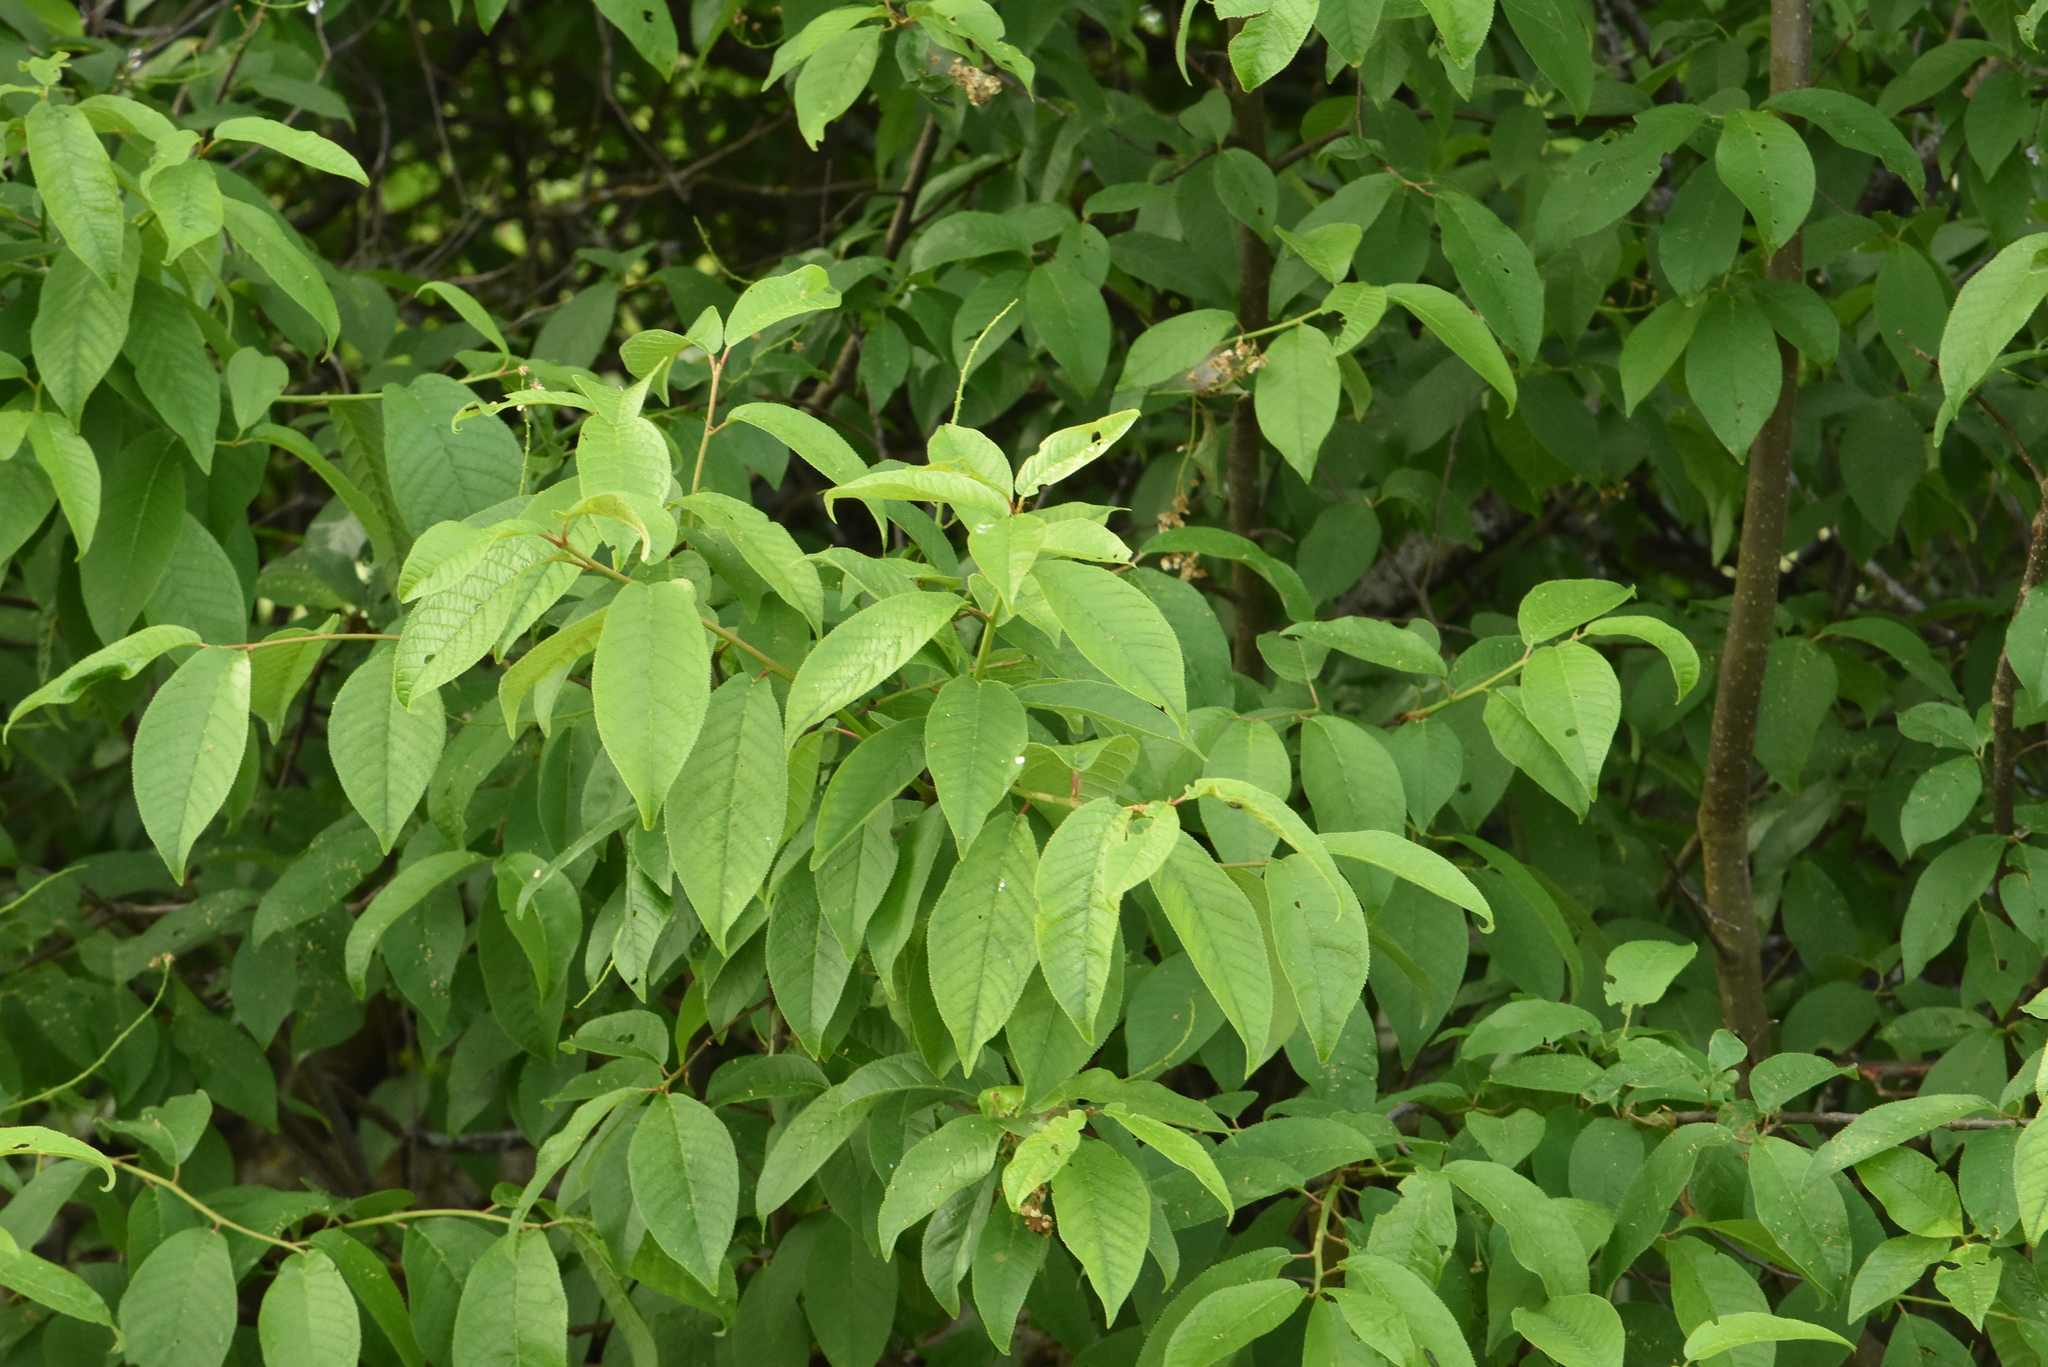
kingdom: Plantae
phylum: Tracheophyta
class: Magnoliopsida
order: Rosales
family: Rosaceae
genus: Prunus
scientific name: Prunus padus
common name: Bird cherry
